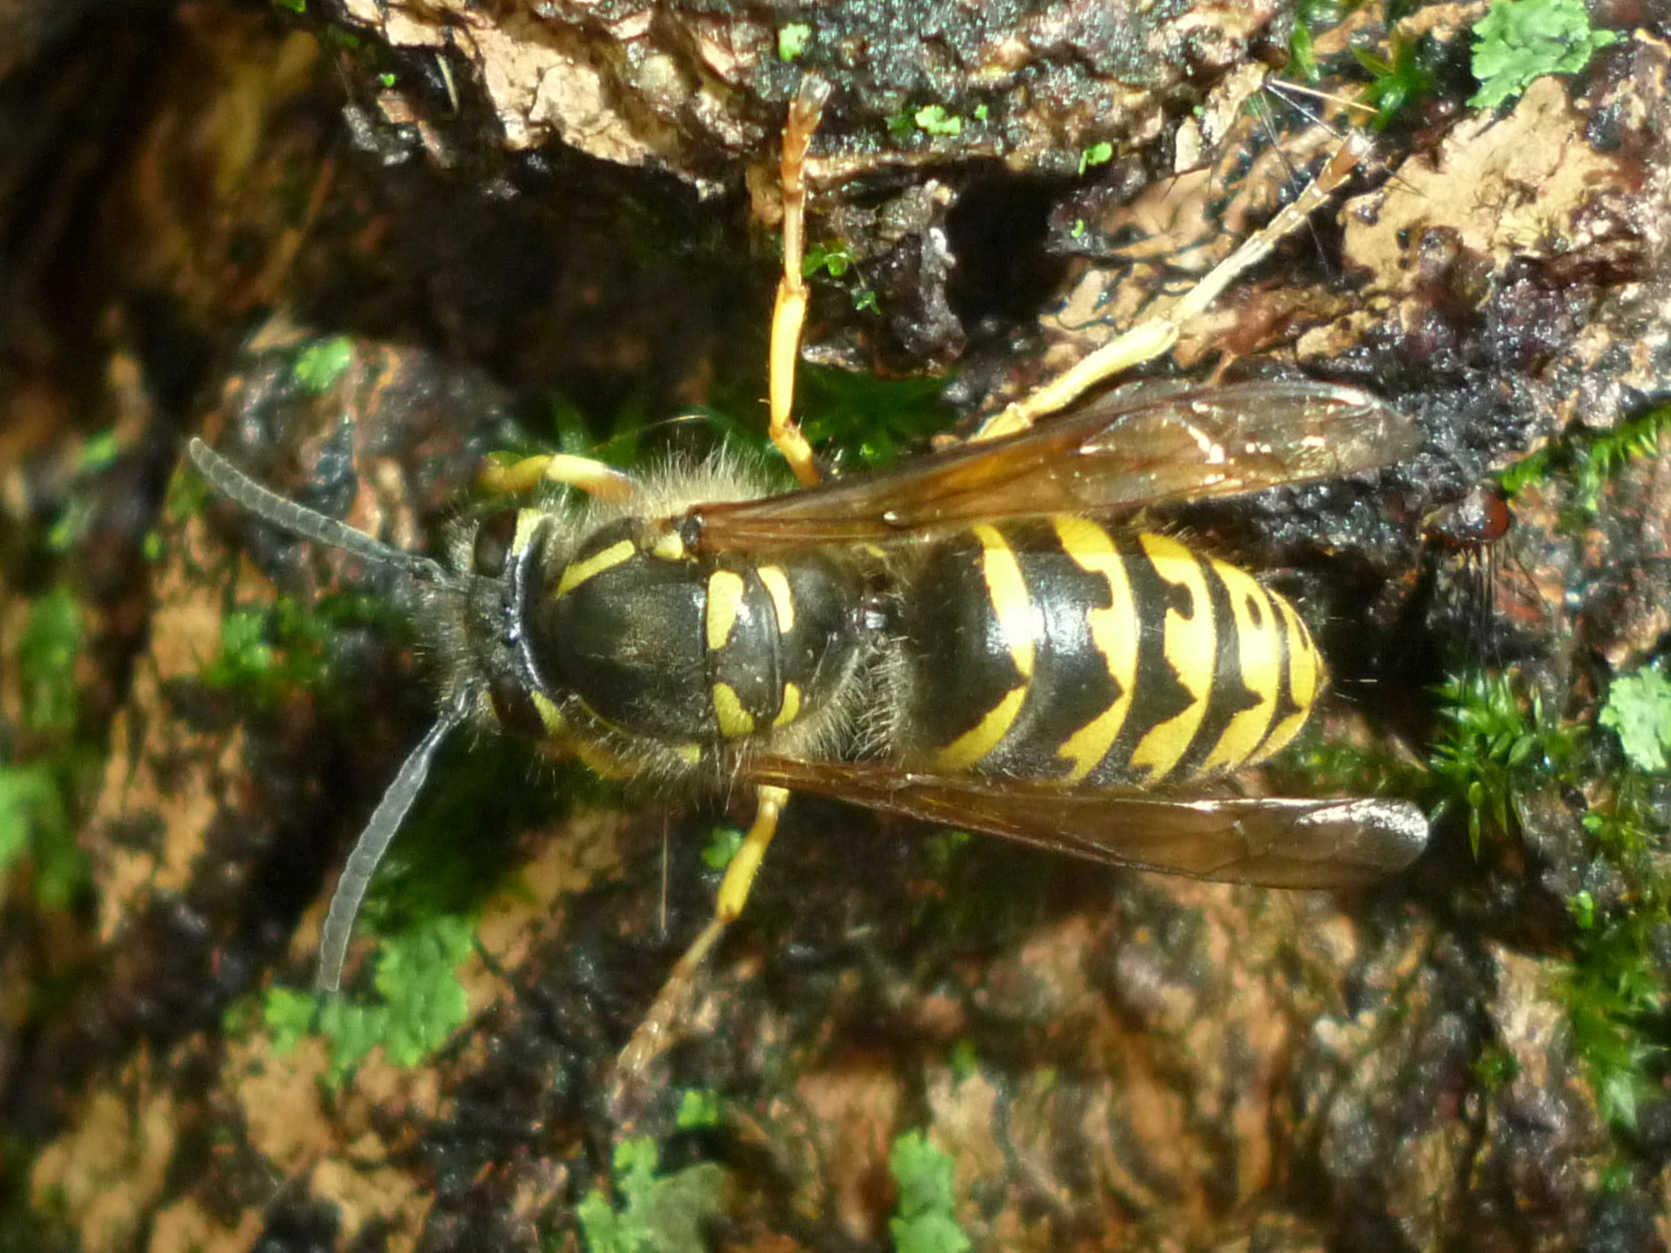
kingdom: Animalia
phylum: Arthropoda
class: Insecta
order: Hymenoptera
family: Vespidae
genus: Dolichovespula
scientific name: Dolichovespula arenaria
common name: Aerial yellowjacket
